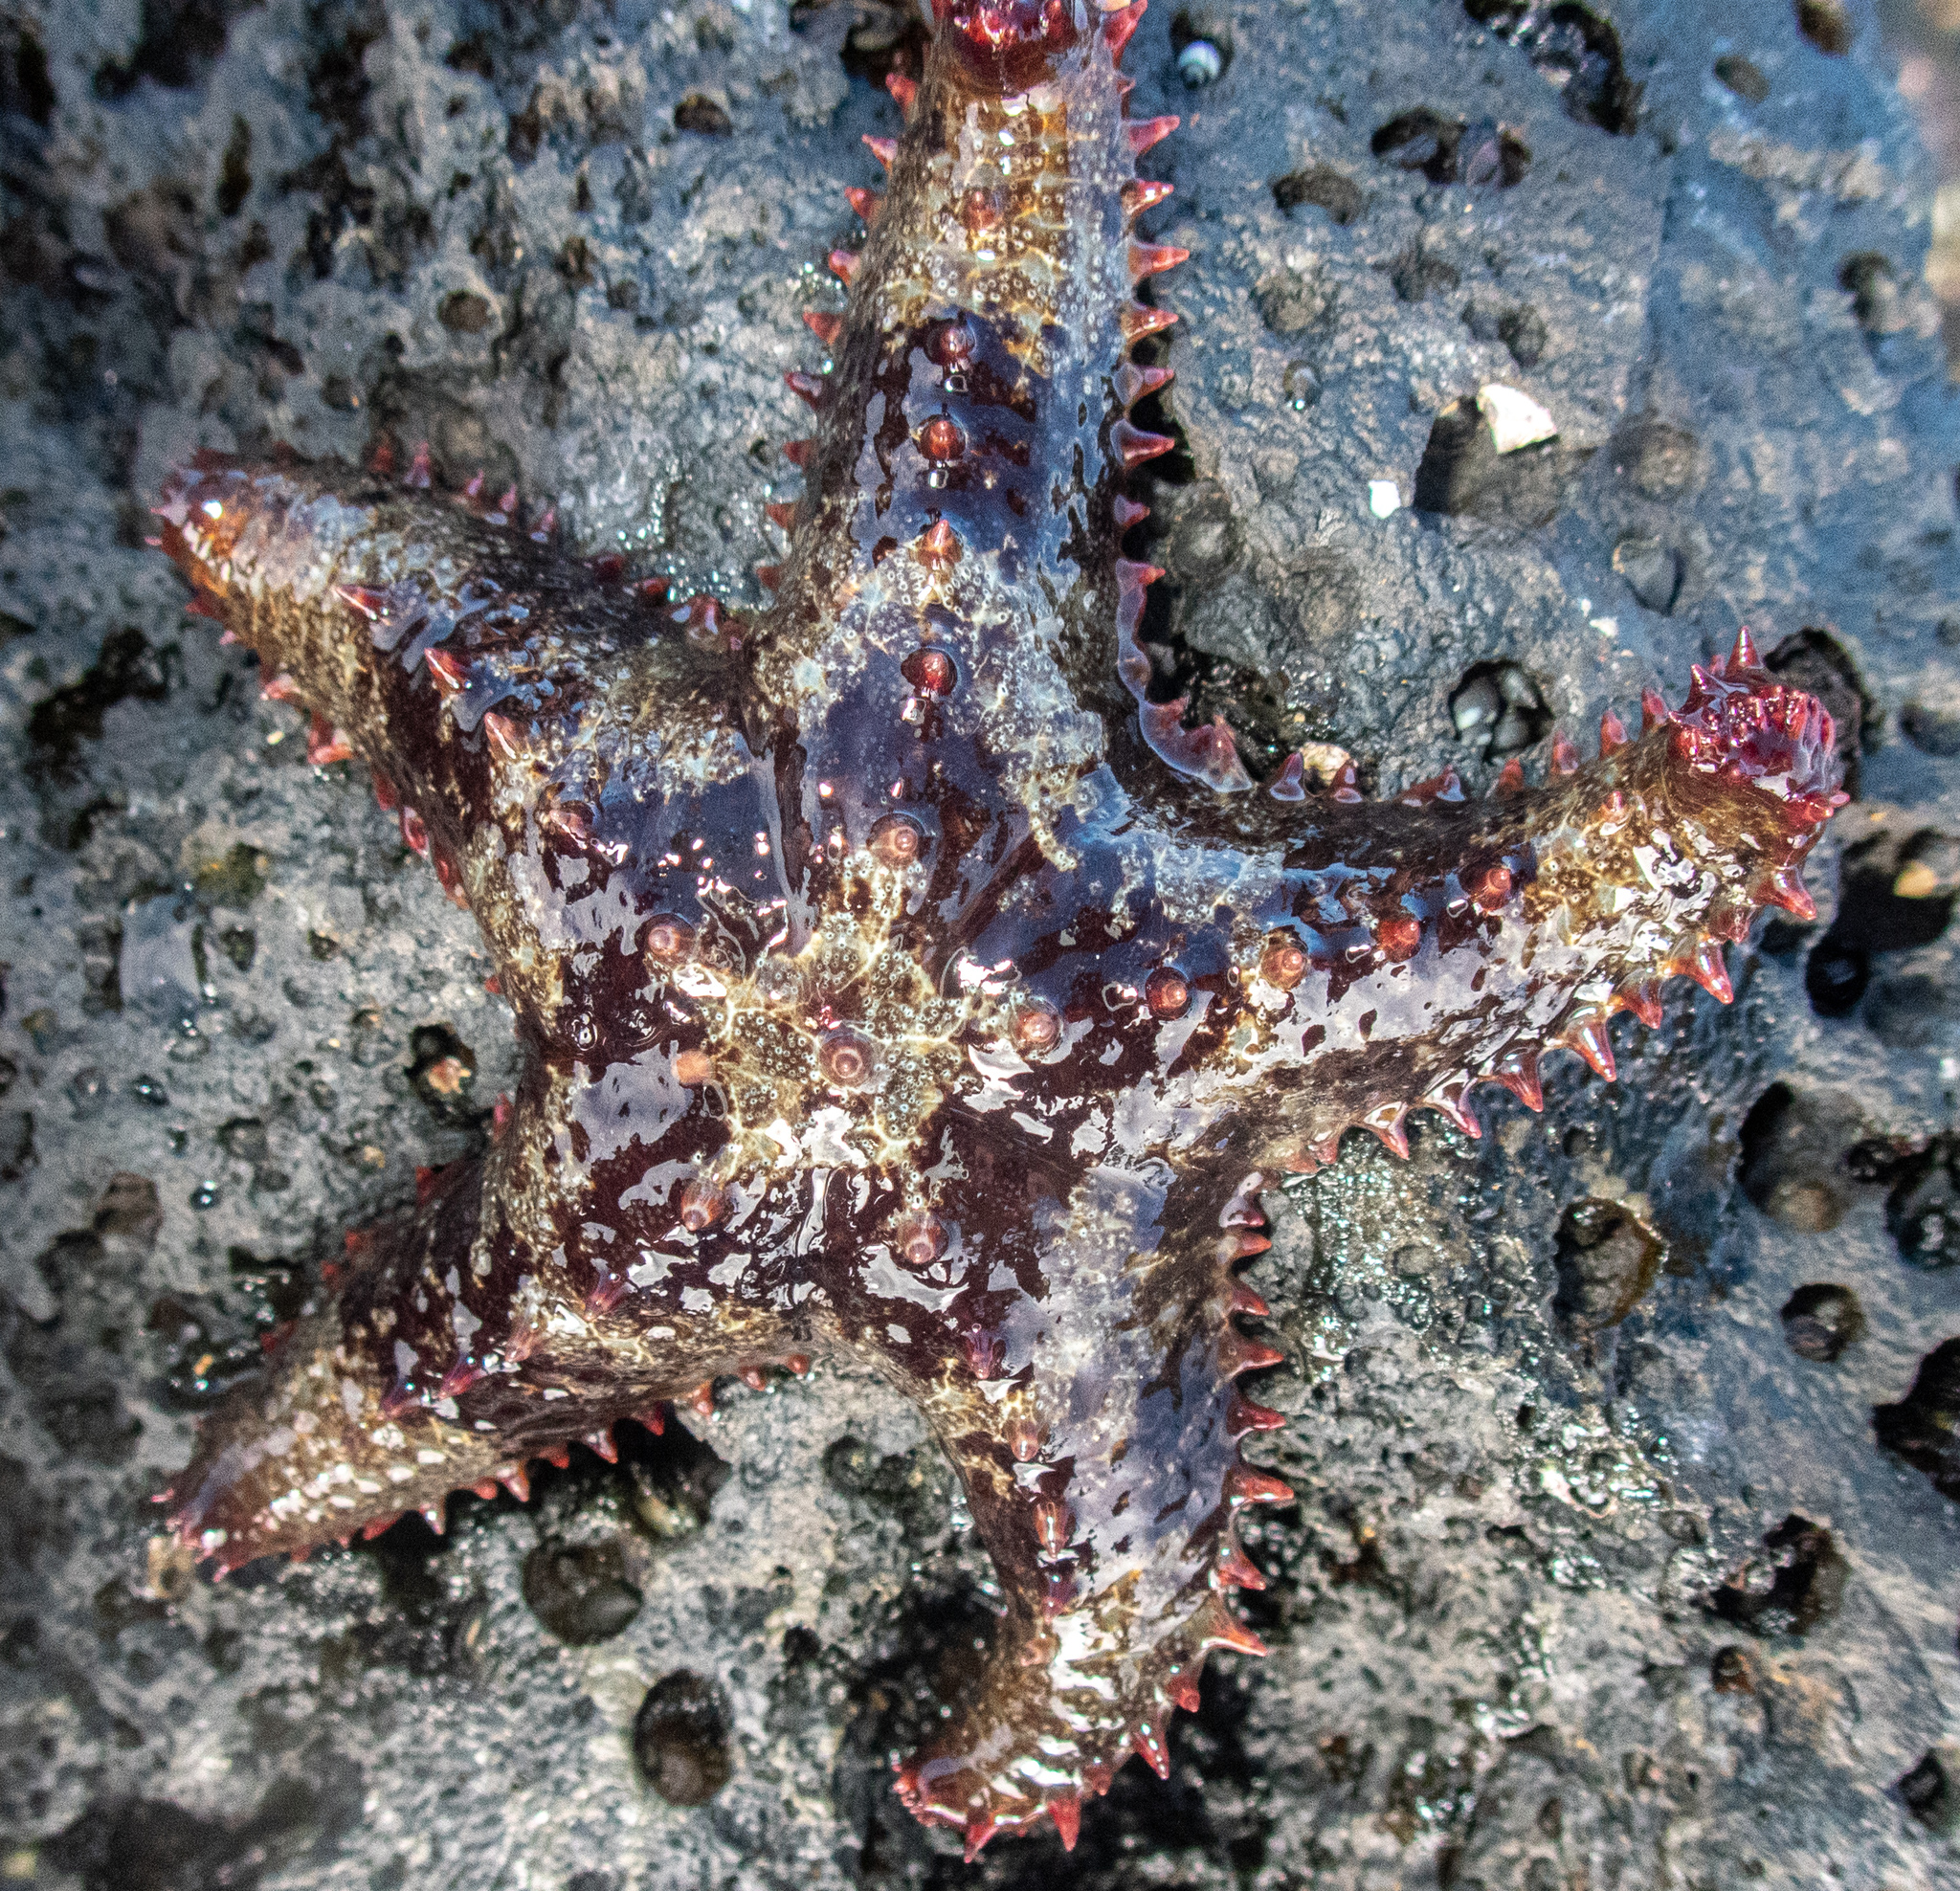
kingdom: Animalia
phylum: Echinodermata
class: Asteroidea
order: Valvatida
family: Asteropseidae
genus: Asteropsis
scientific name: Asteropsis carinifera
